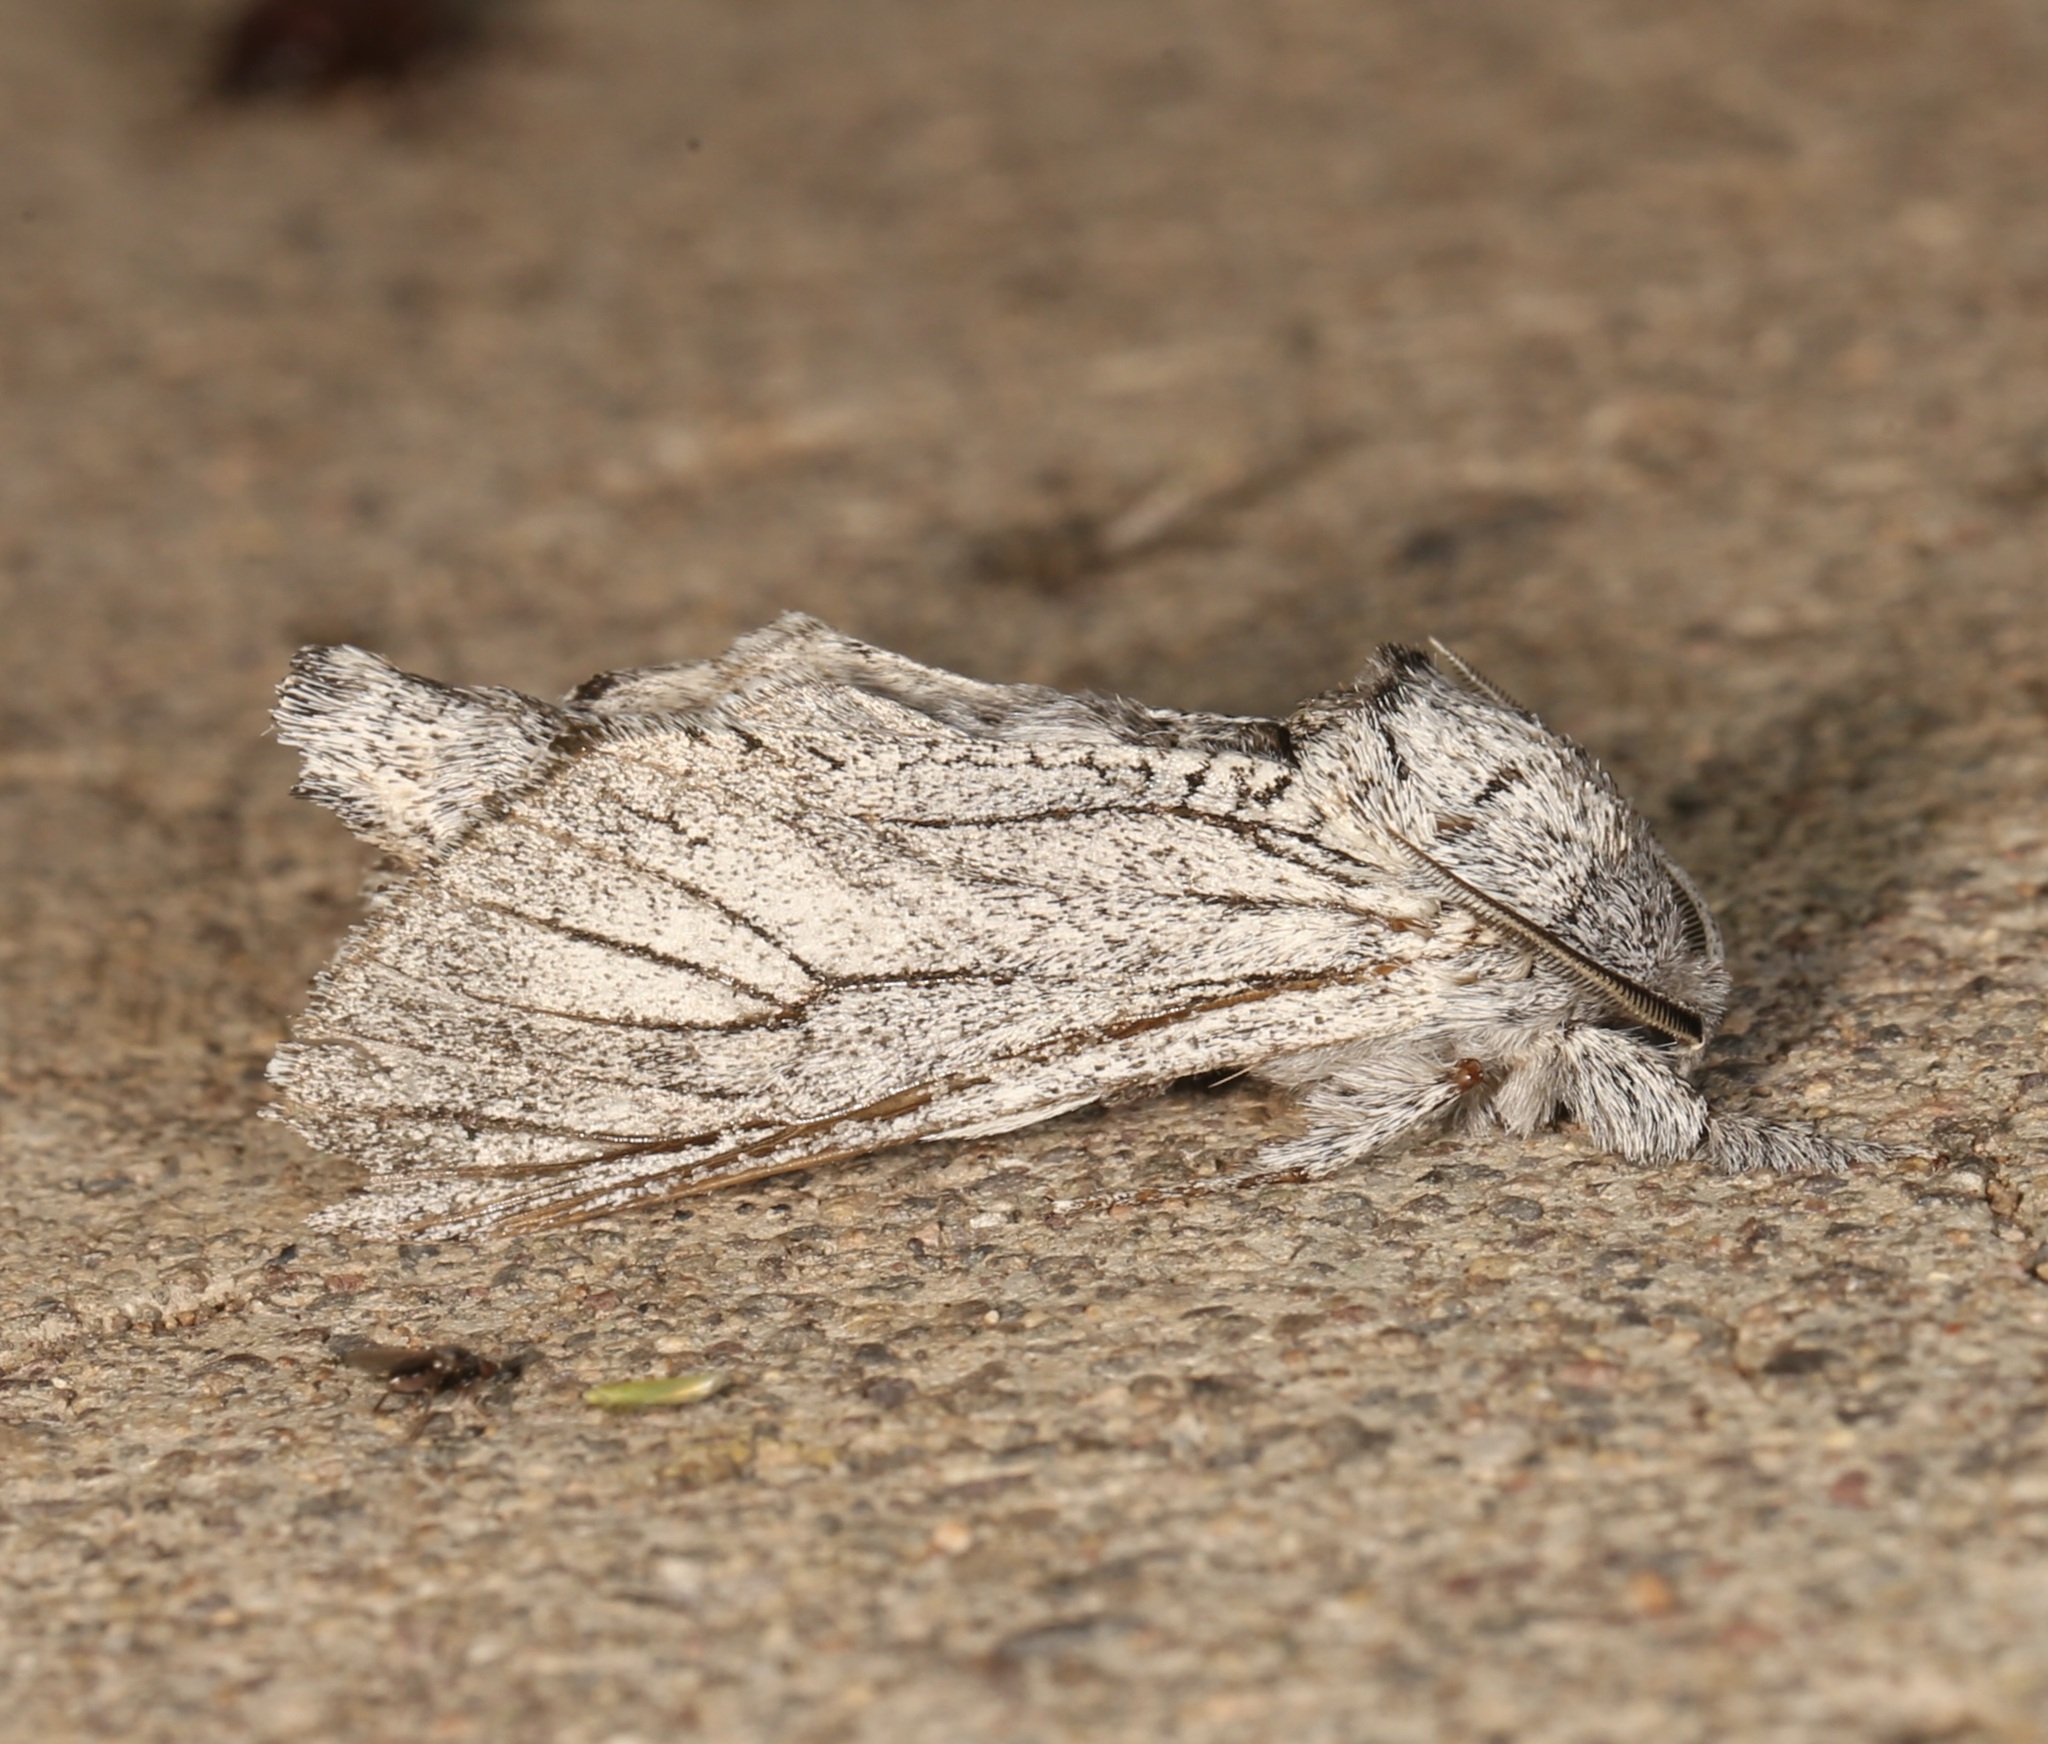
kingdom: Animalia
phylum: Arthropoda
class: Insecta
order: Lepidoptera
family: Cossidae
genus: Inguromorpha
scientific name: Inguromorpha
